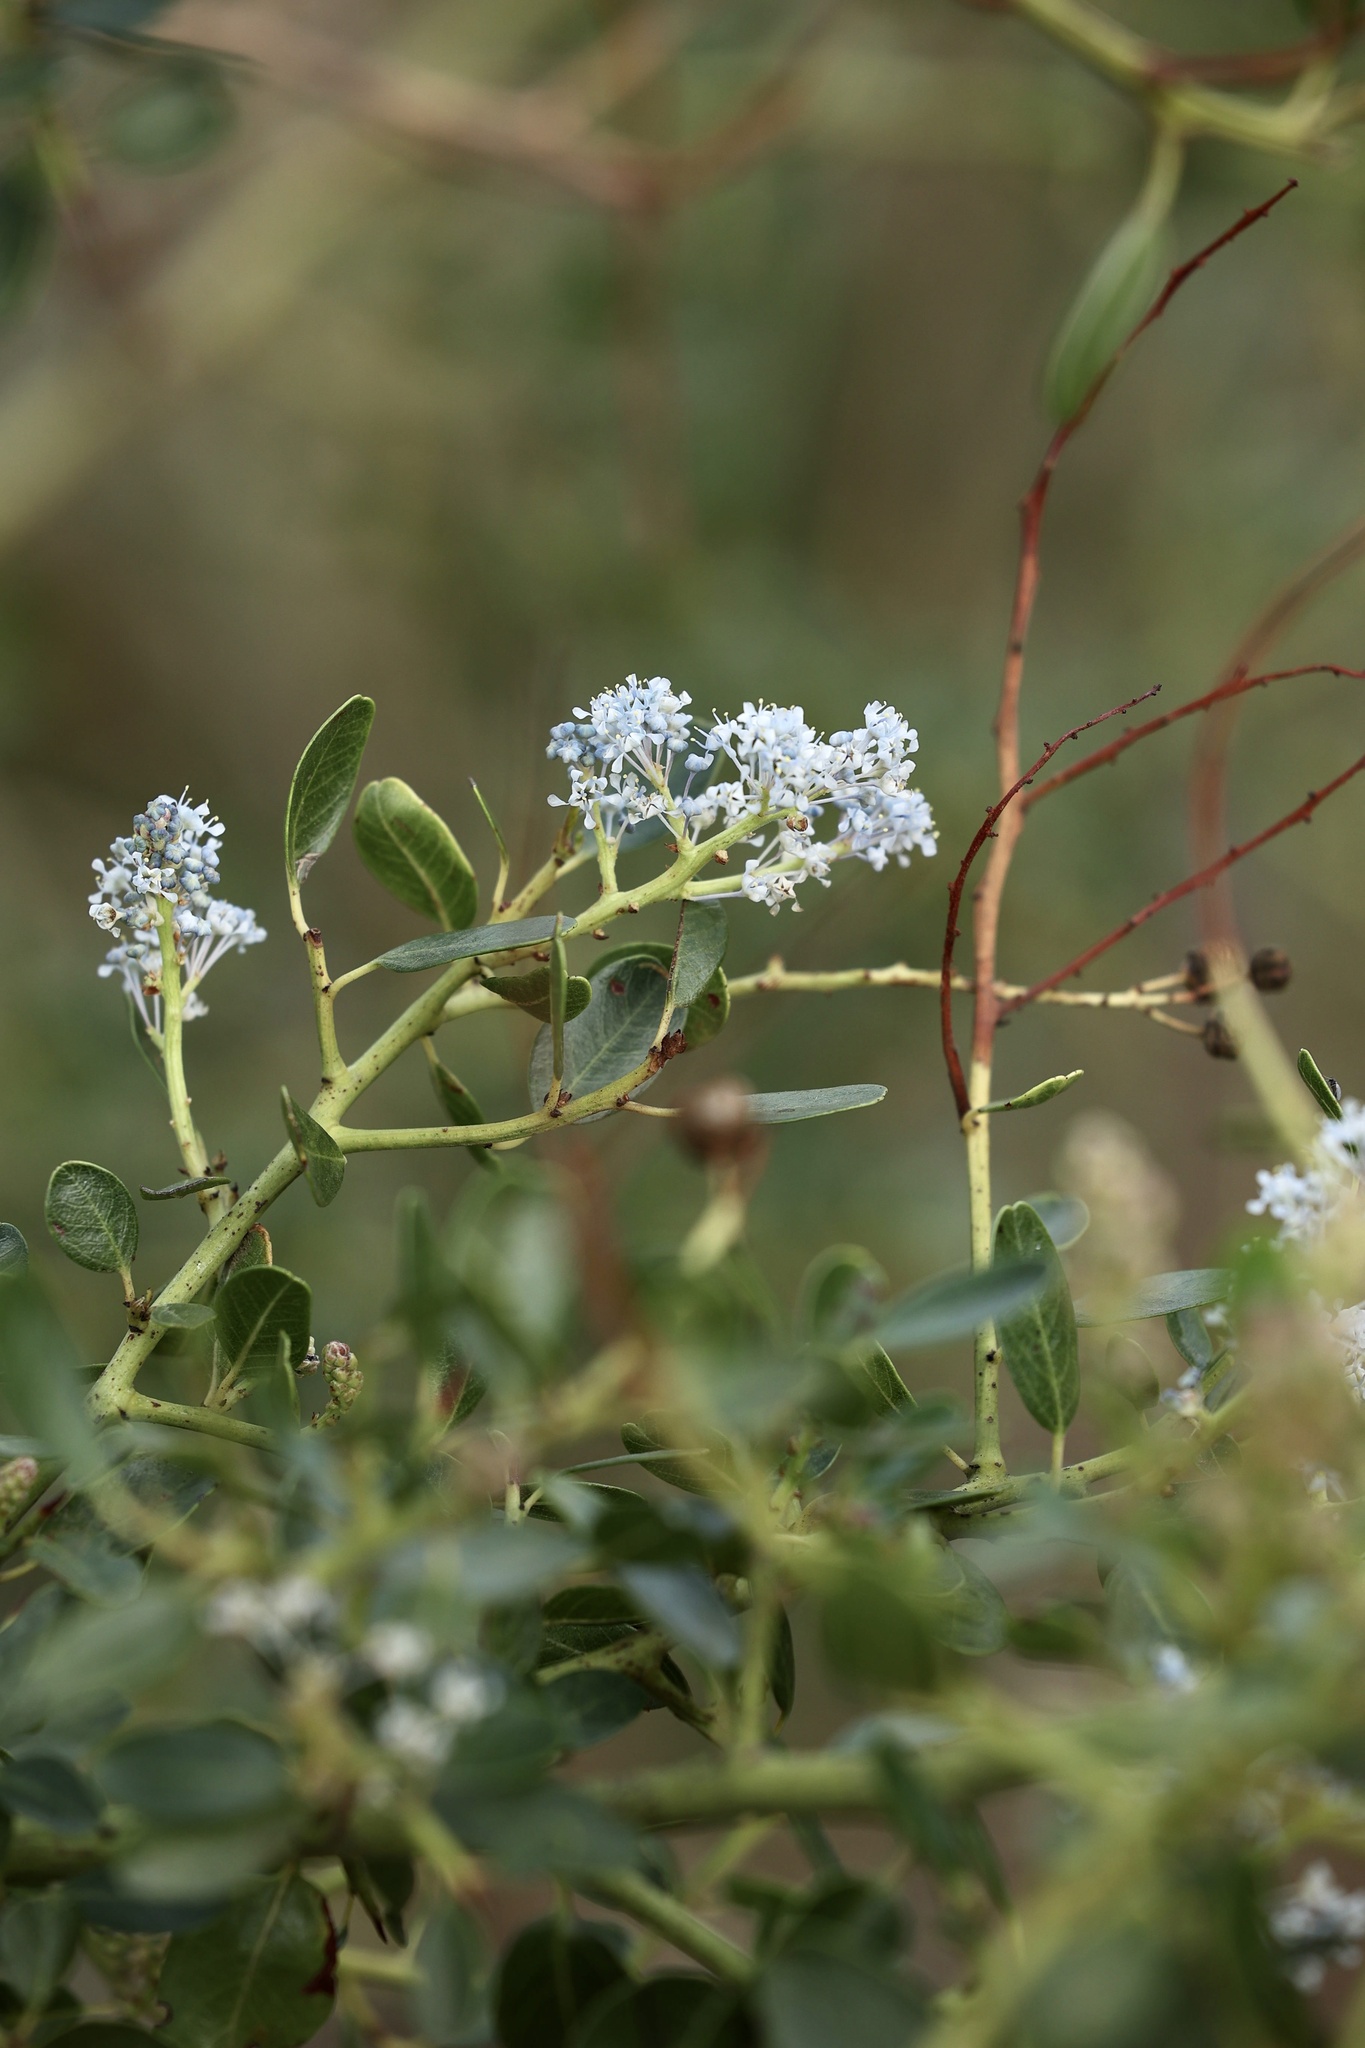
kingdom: Plantae
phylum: Tracheophyta
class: Magnoliopsida
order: Rosales
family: Rhamnaceae
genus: Ceanothus
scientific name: Ceanothus spinosus
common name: Greenbark whitethorn
